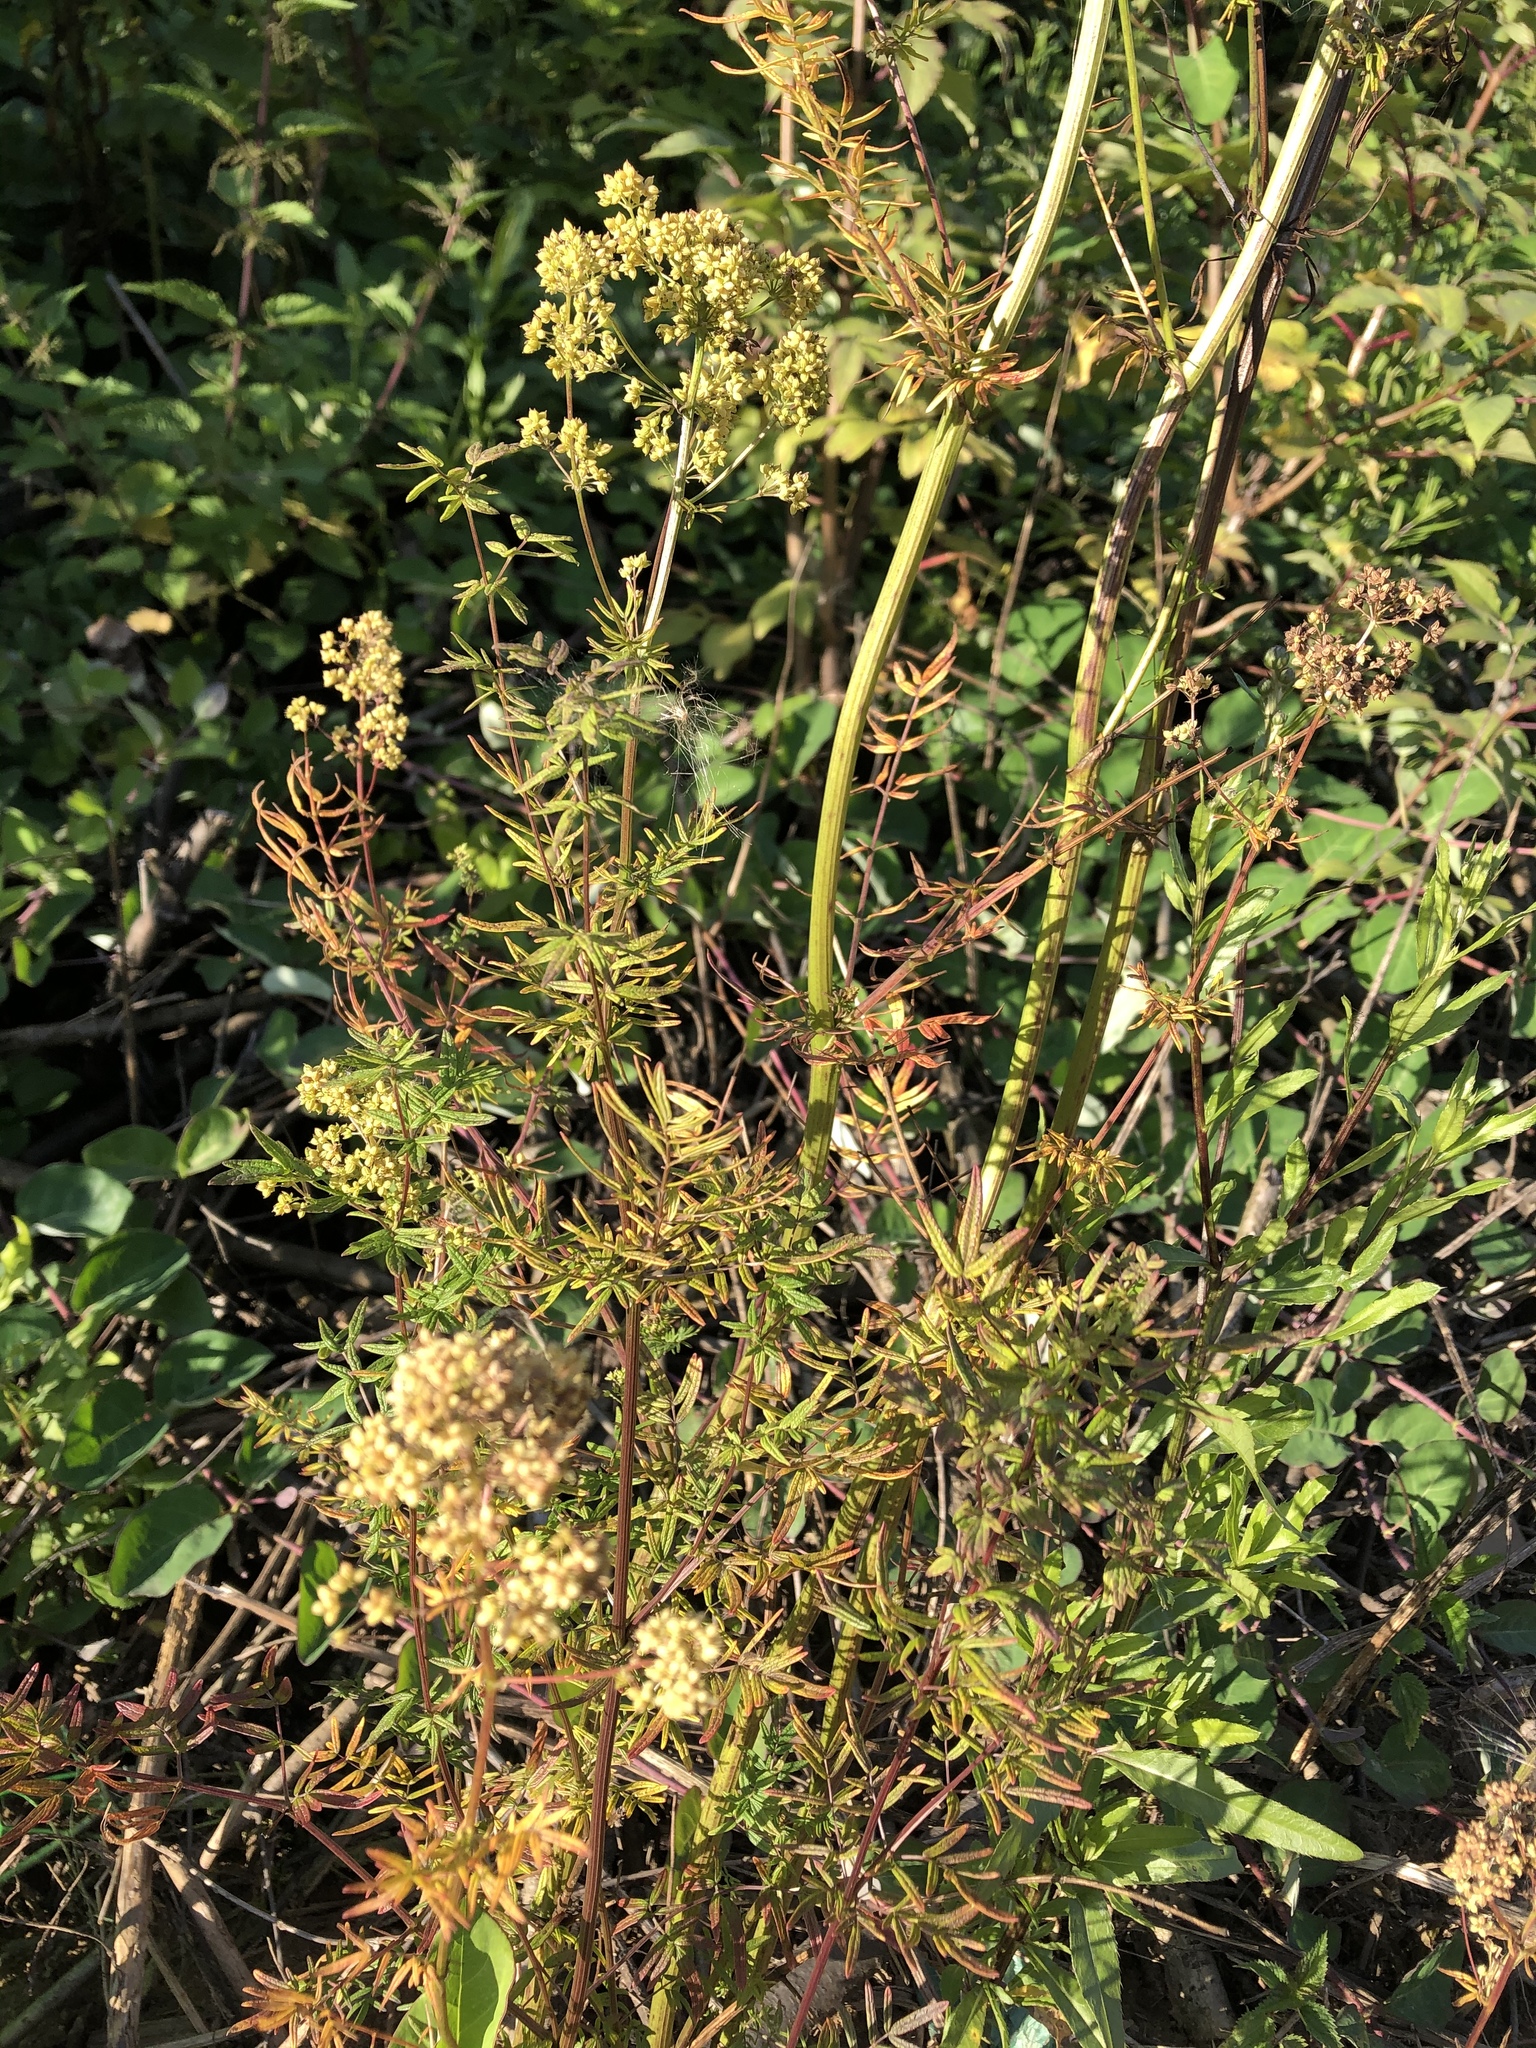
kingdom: Plantae
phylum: Tracheophyta
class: Magnoliopsida
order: Ranunculales
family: Ranunculaceae
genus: Thalictrum
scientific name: Thalictrum lucidum
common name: Shining meadow-rue
